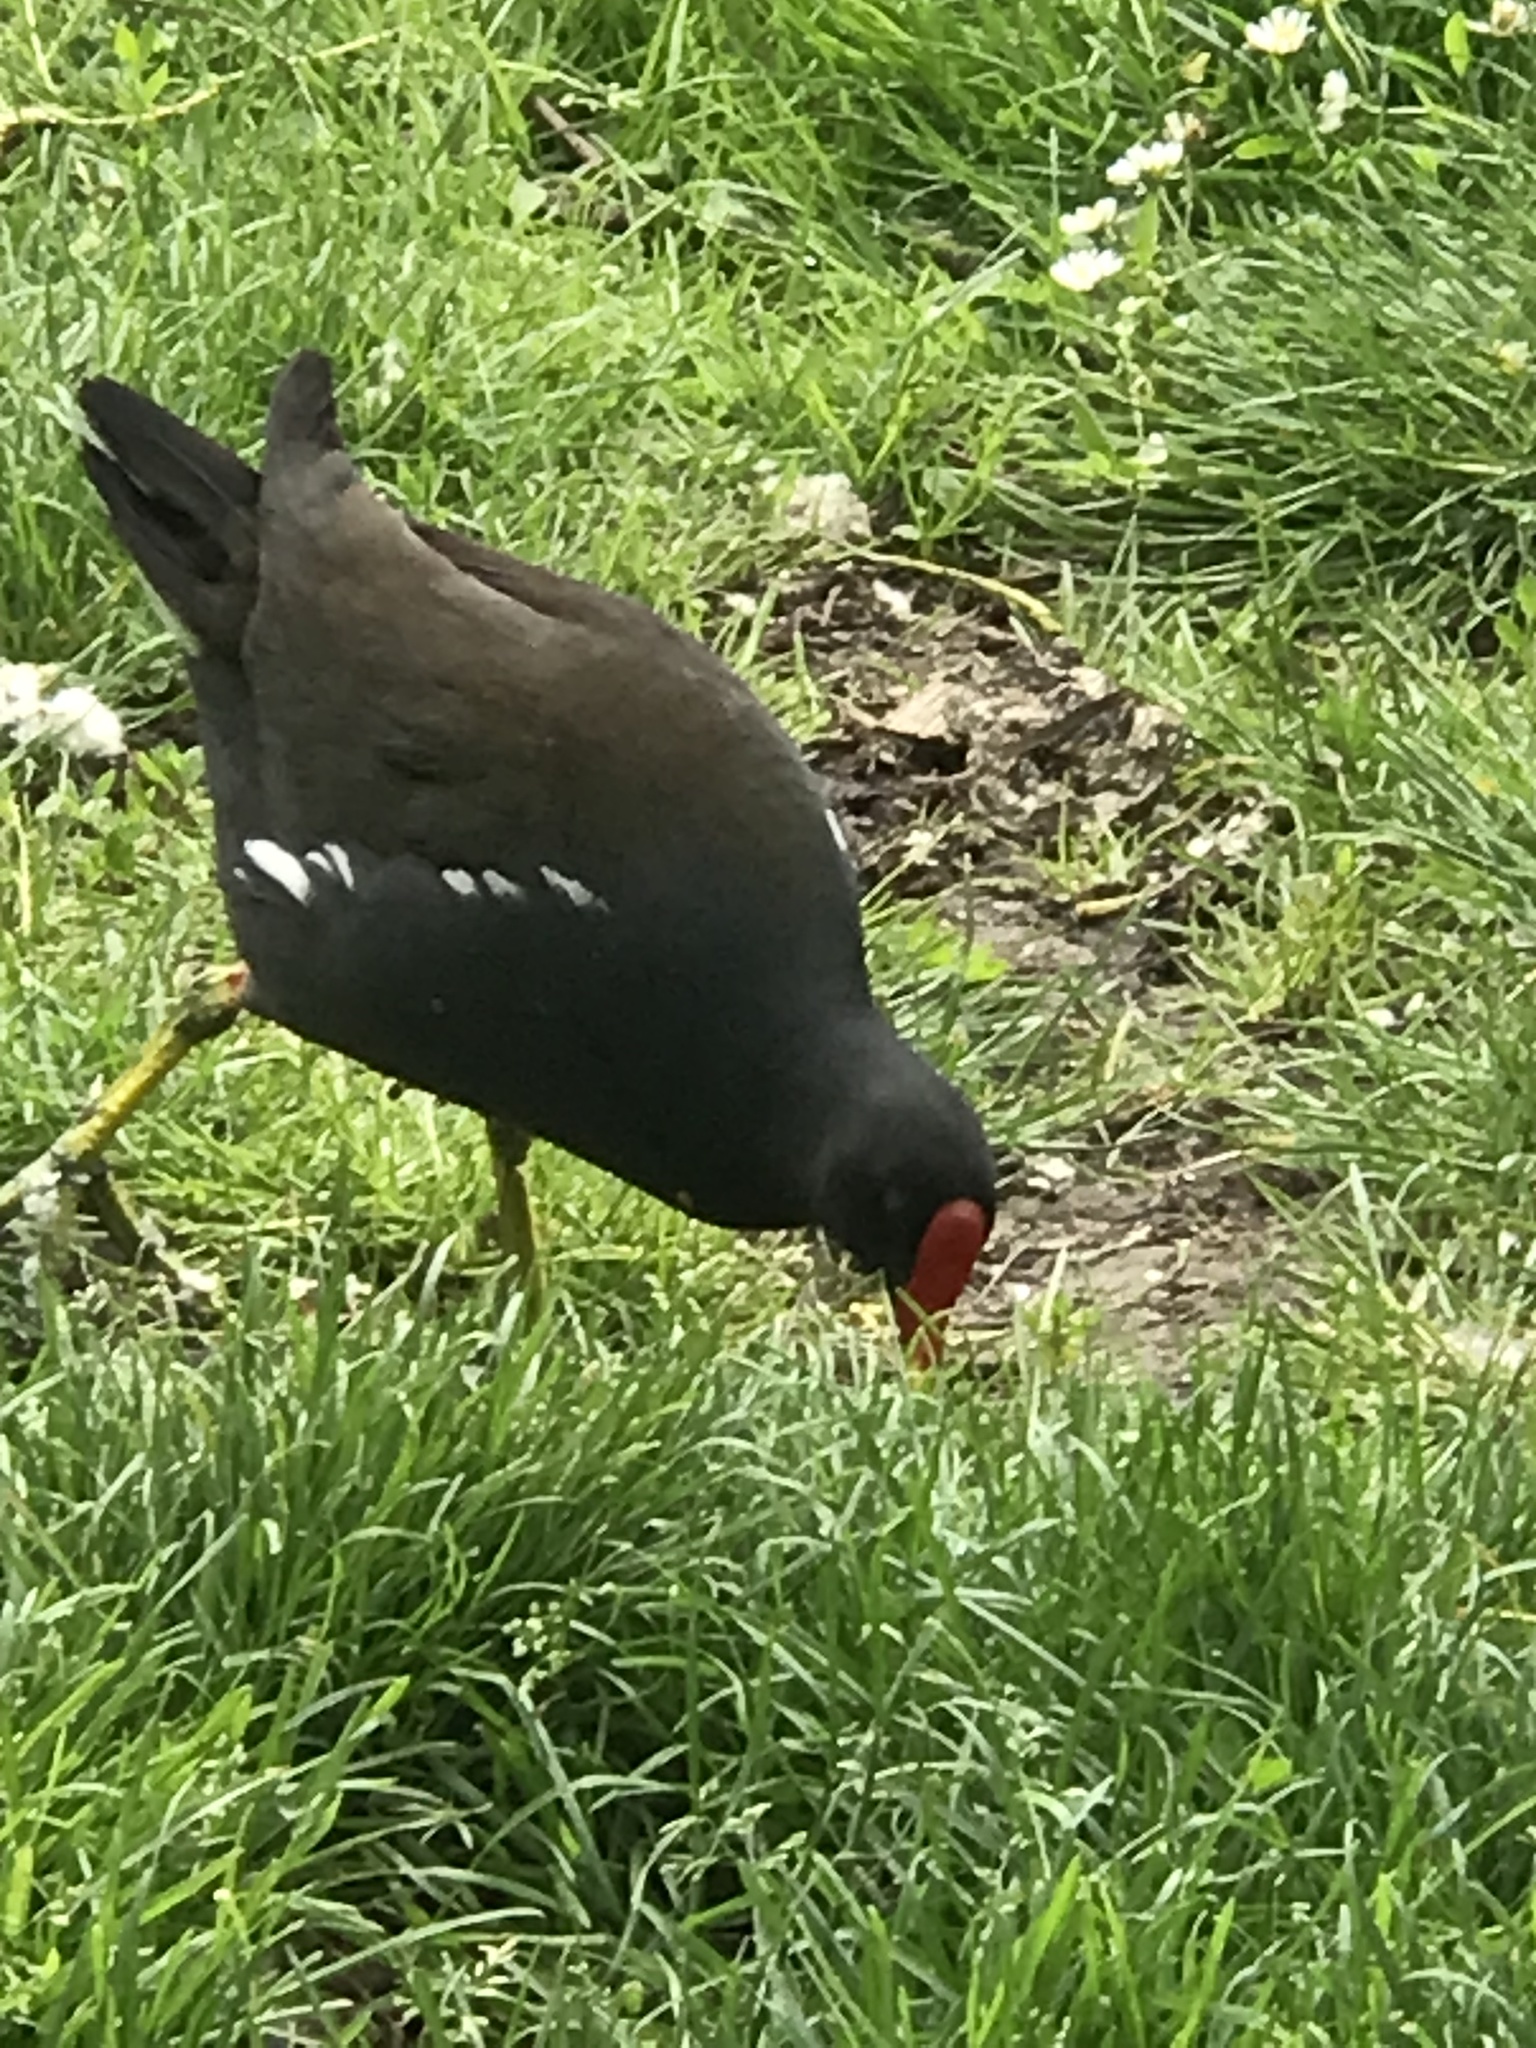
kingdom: Animalia
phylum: Chordata
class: Aves
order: Gruiformes
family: Rallidae
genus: Gallinula
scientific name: Gallinula chloropus
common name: Common moorhen
